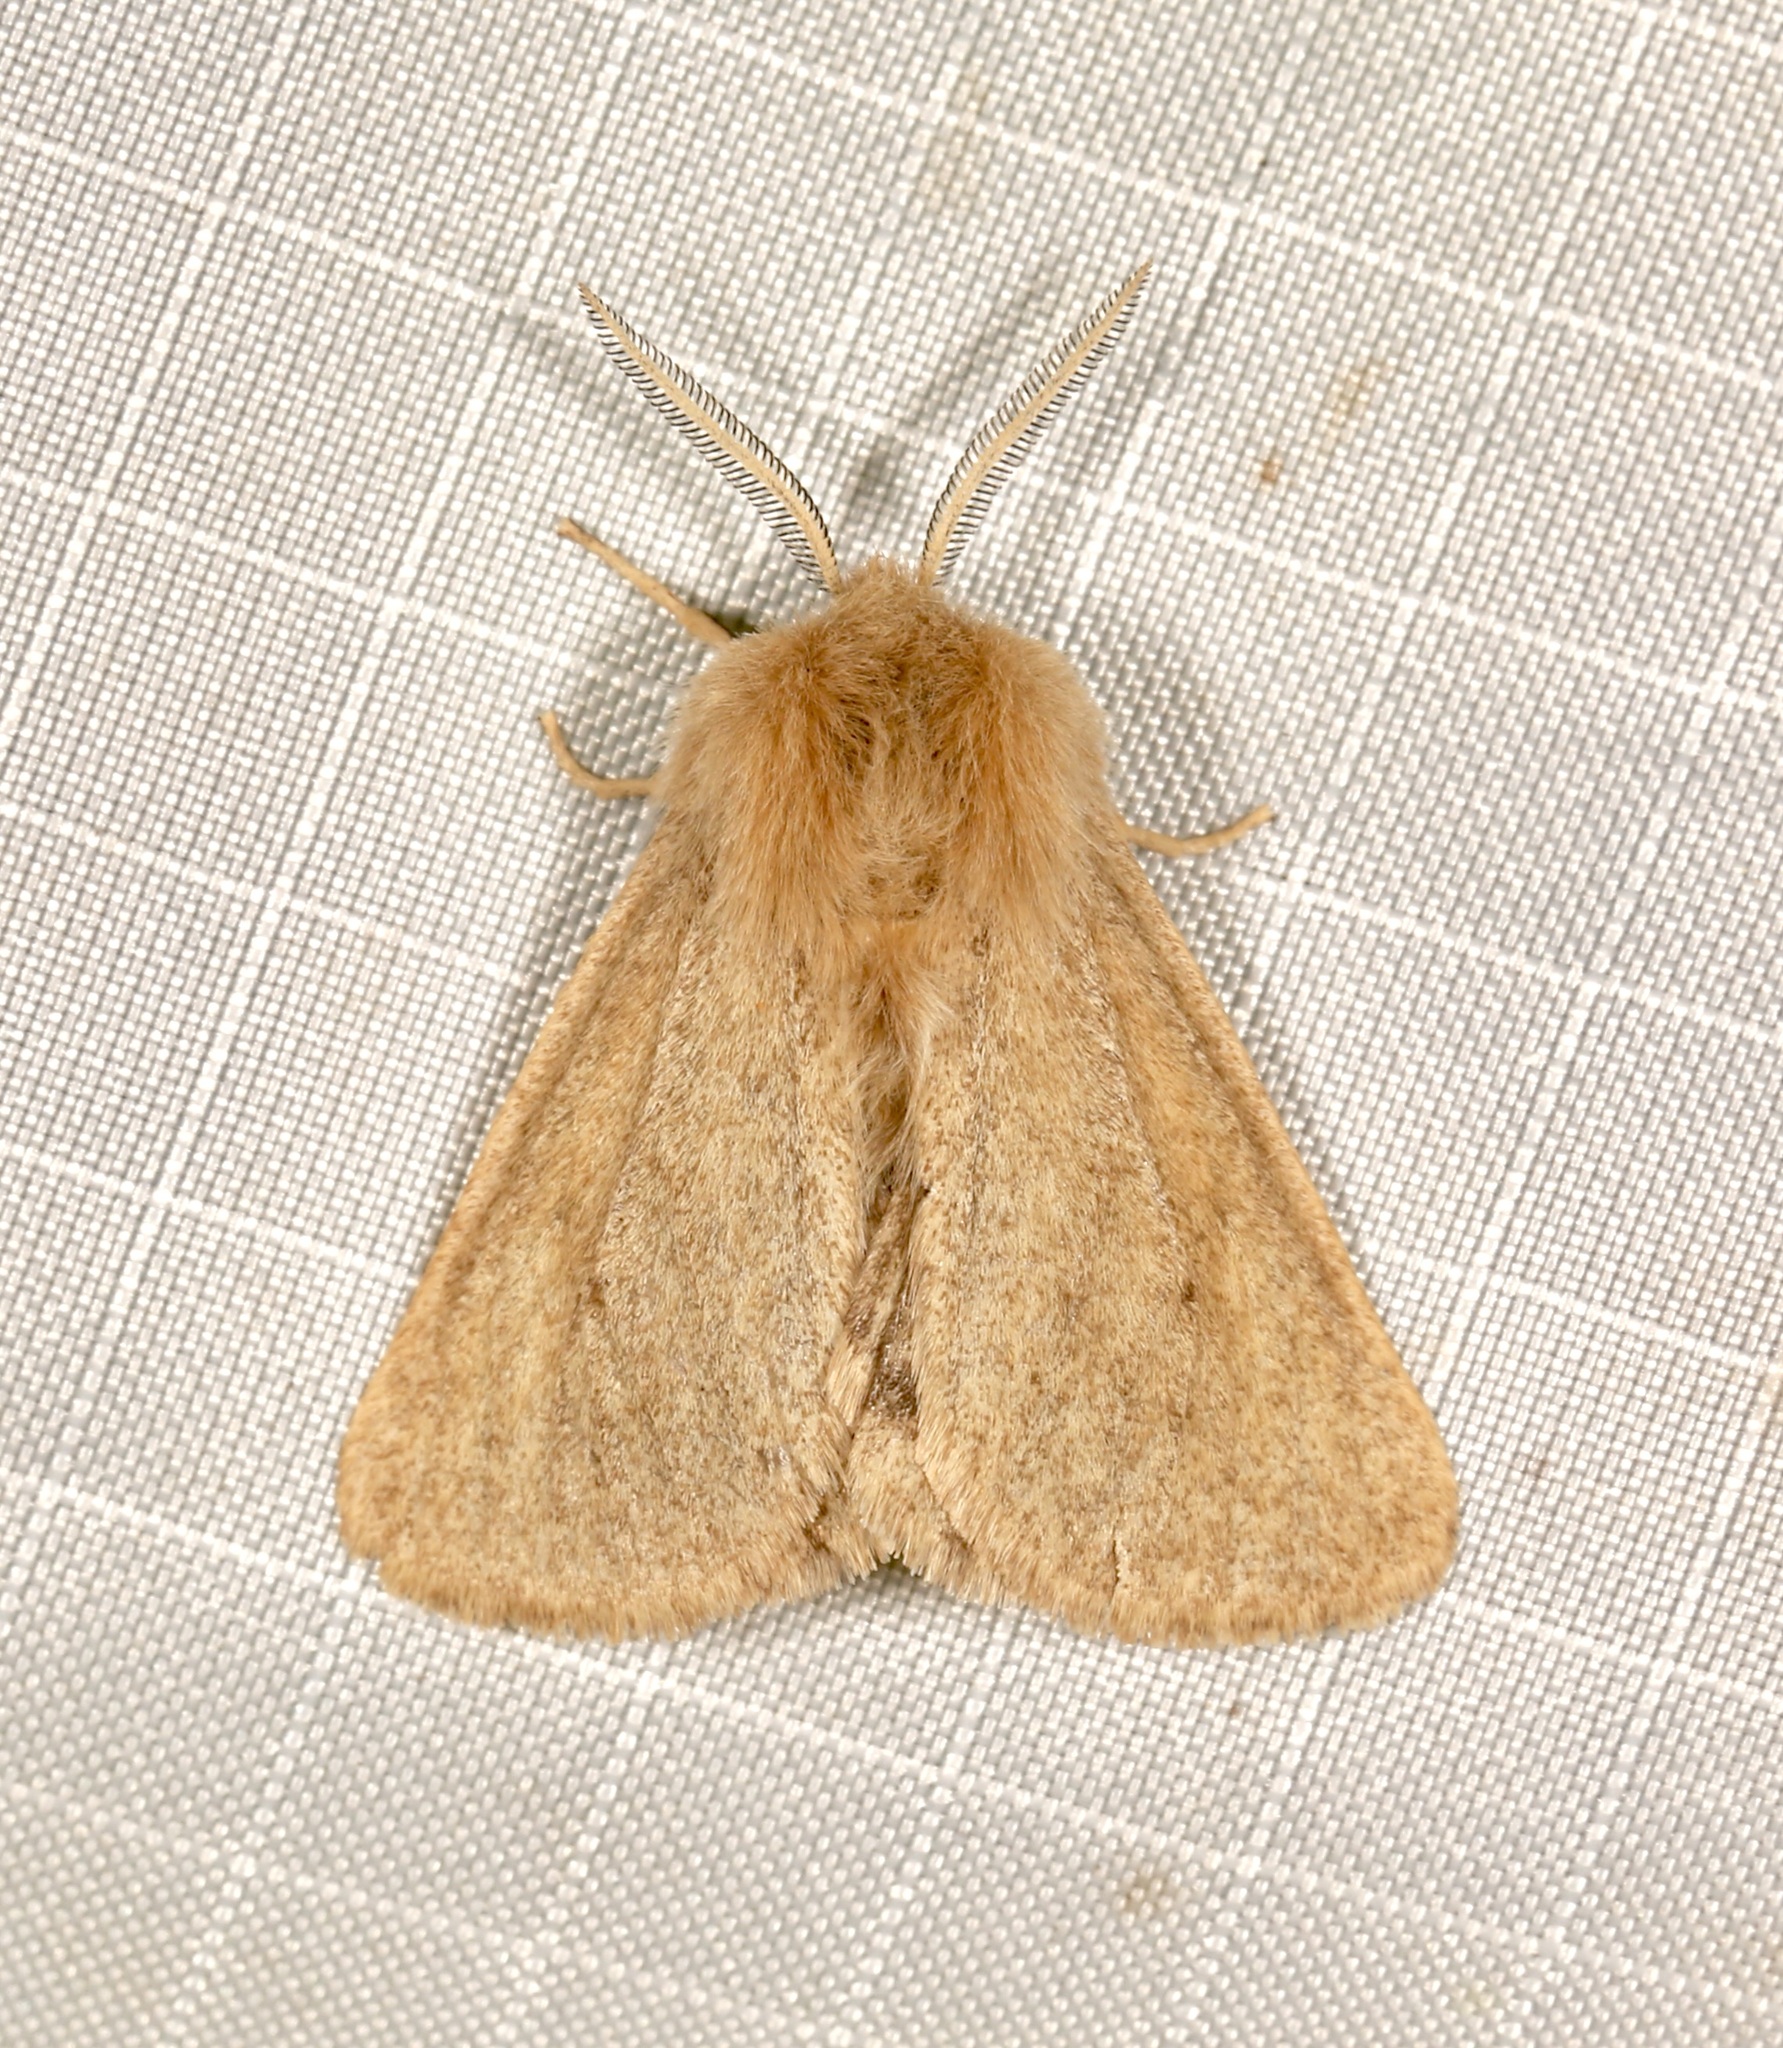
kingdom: Animalia
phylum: Arthropoda
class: Insecta
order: Lepidoptera
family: Erebidae
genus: Spilosoma
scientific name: Spilosoma vagans
